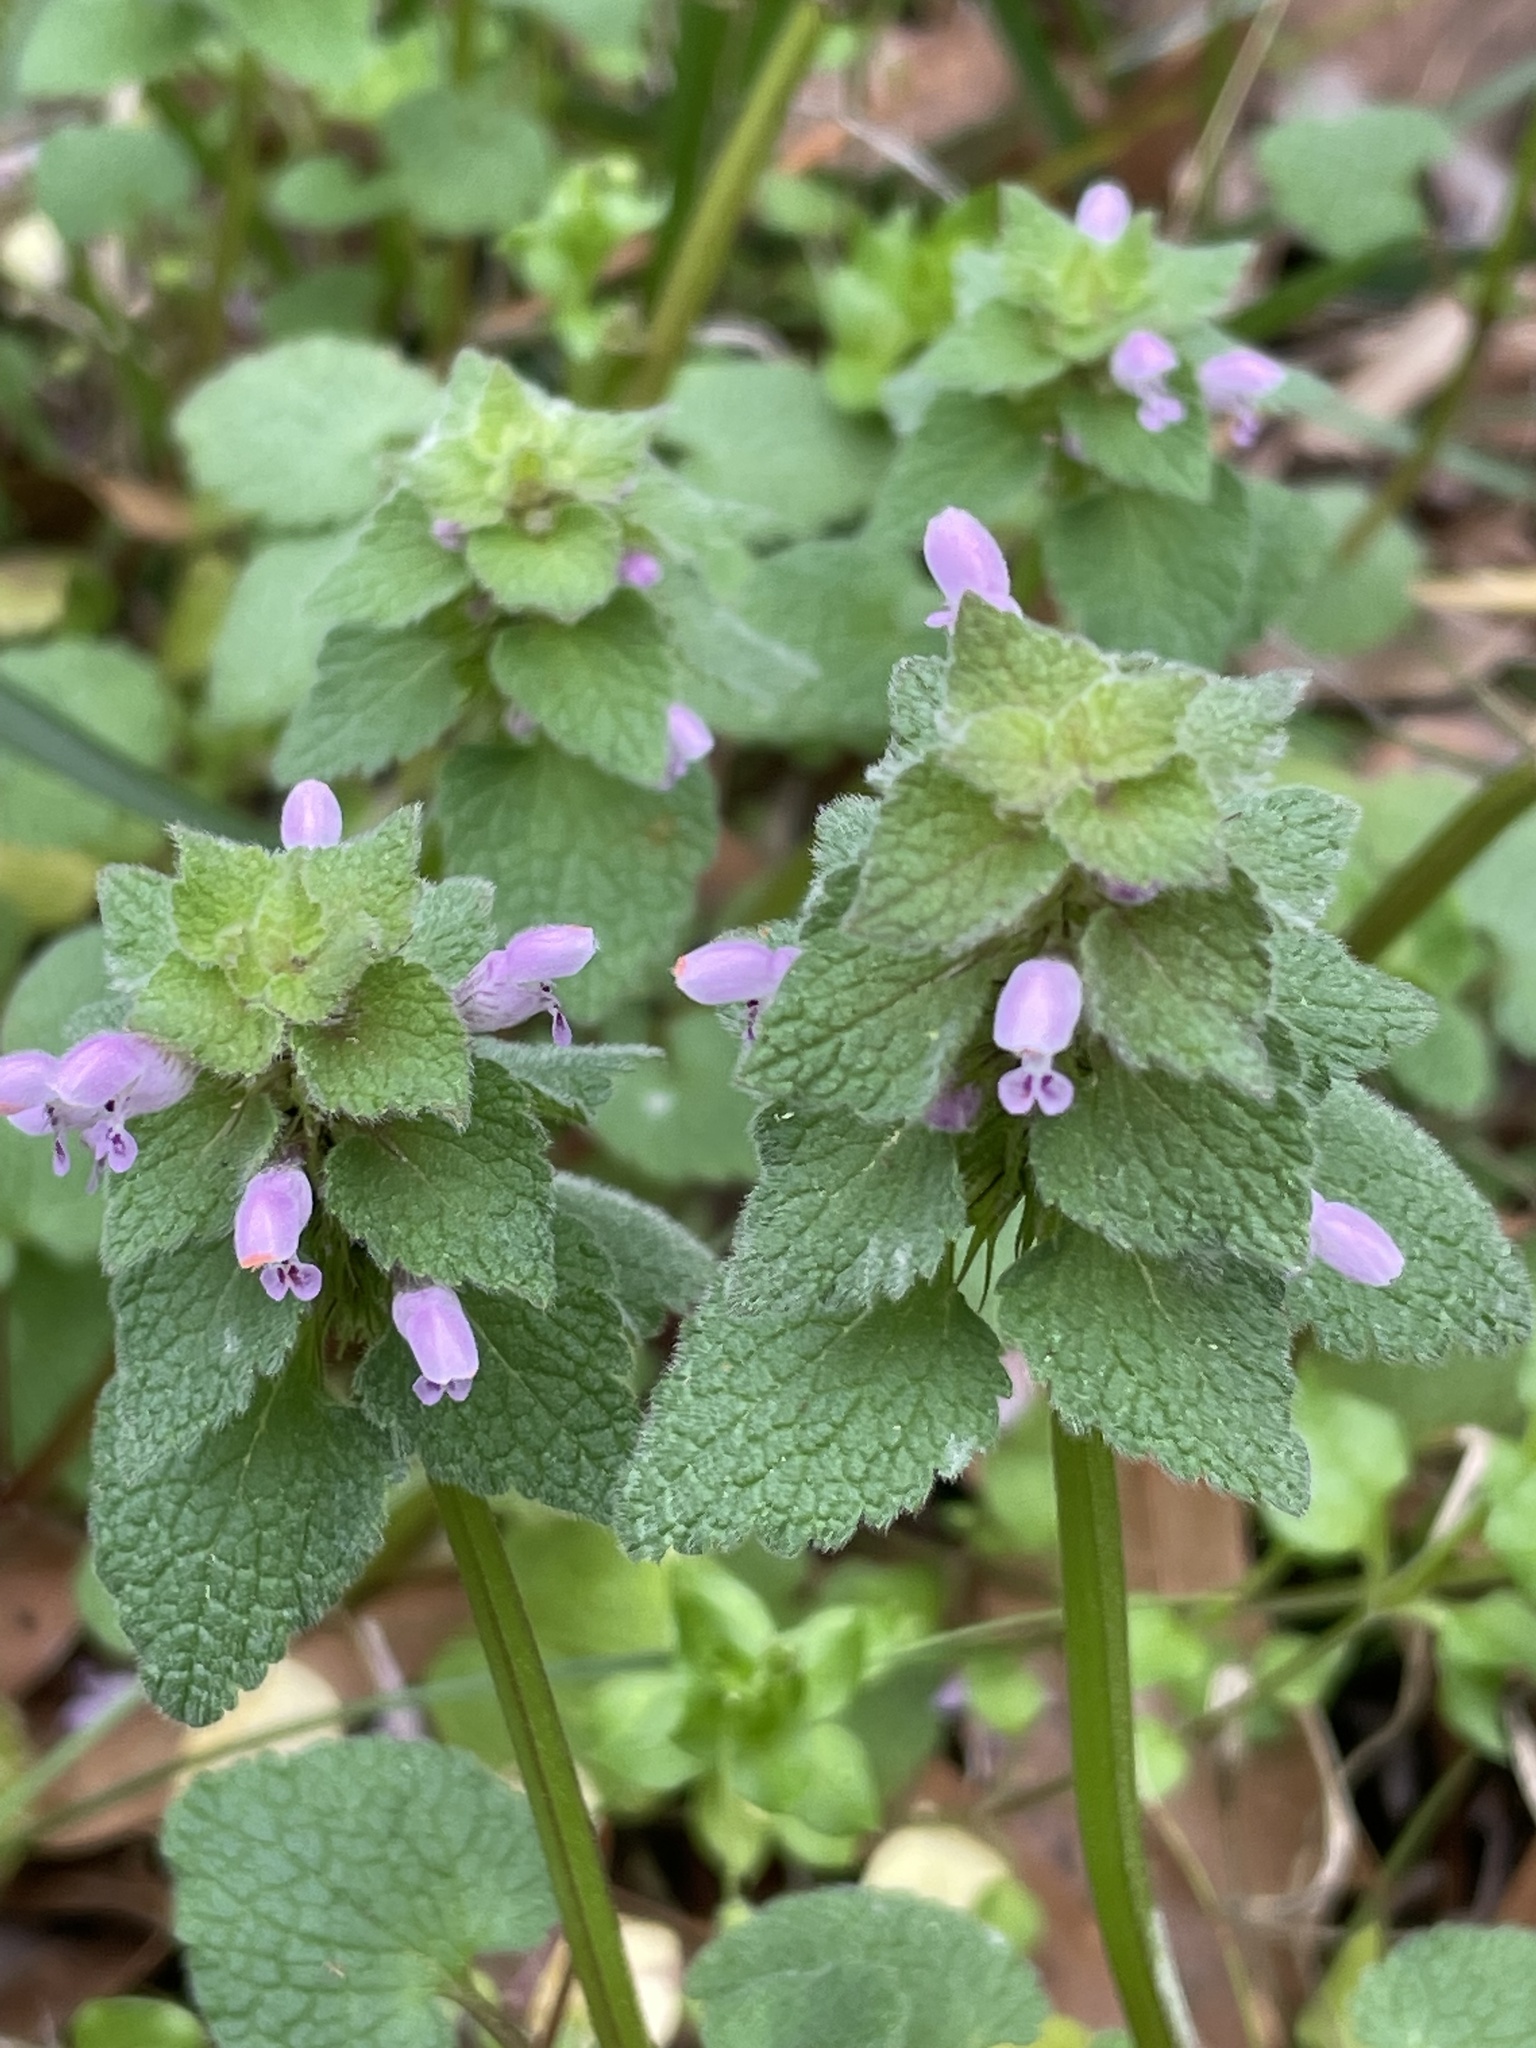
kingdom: Plantae
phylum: Tracheophyta
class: Magnoliopsida
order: Lamiales
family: Lamiaceae
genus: Lamium
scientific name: Lamium purpureum
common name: Red dead-nettle
